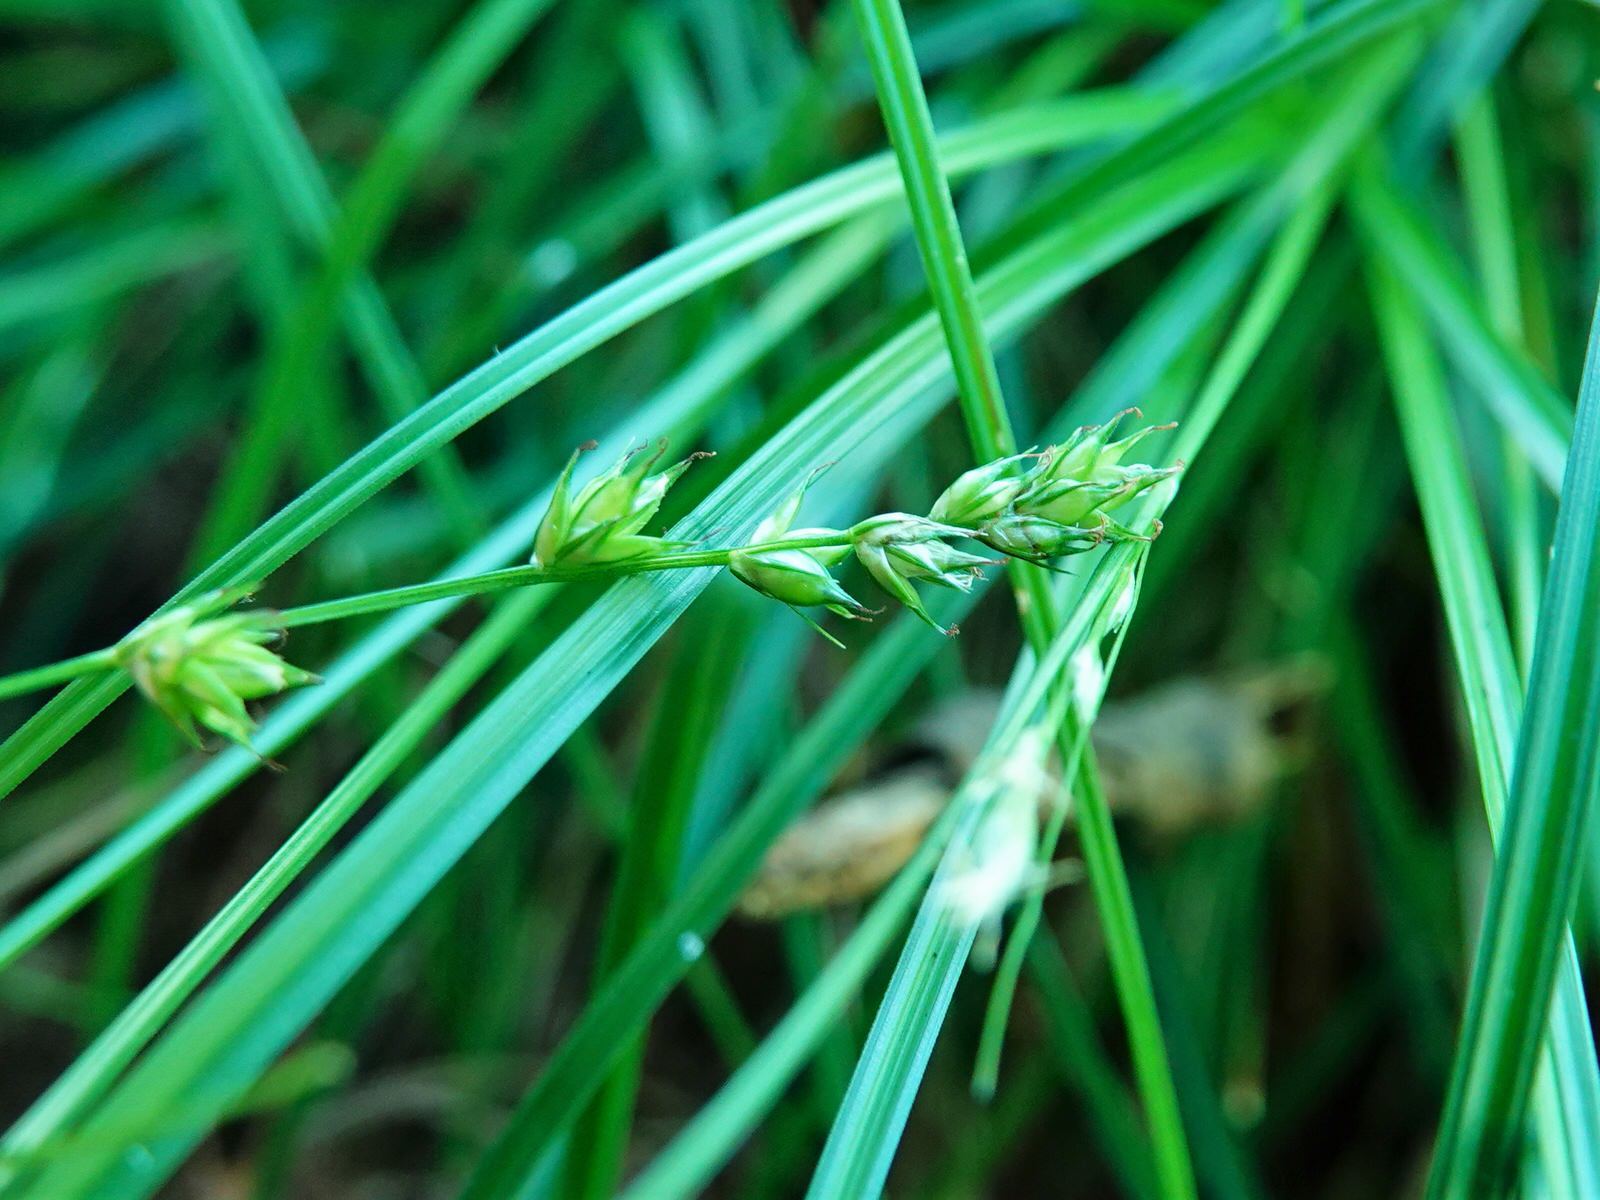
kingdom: Plantae
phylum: Tracheophyta
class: Liliopsida
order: Poales
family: Cyperaceae
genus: Carex
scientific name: Carex divulsa
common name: Grassland sedge
